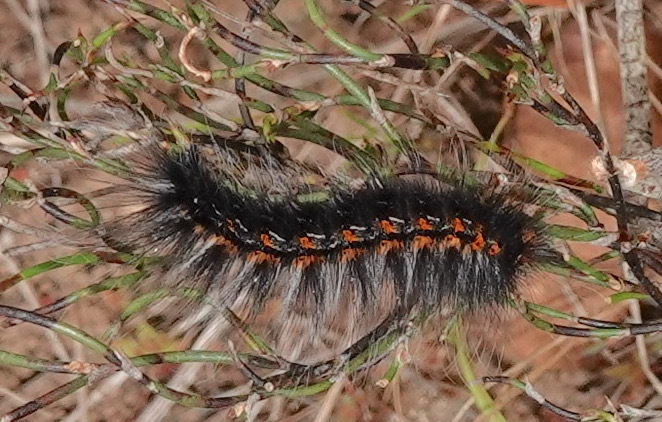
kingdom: Animalia
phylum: Arthropoda
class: Insecta
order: Lepidoptera
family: Lasiocampidae
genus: Mesocelis
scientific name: Mesocelis monticola
